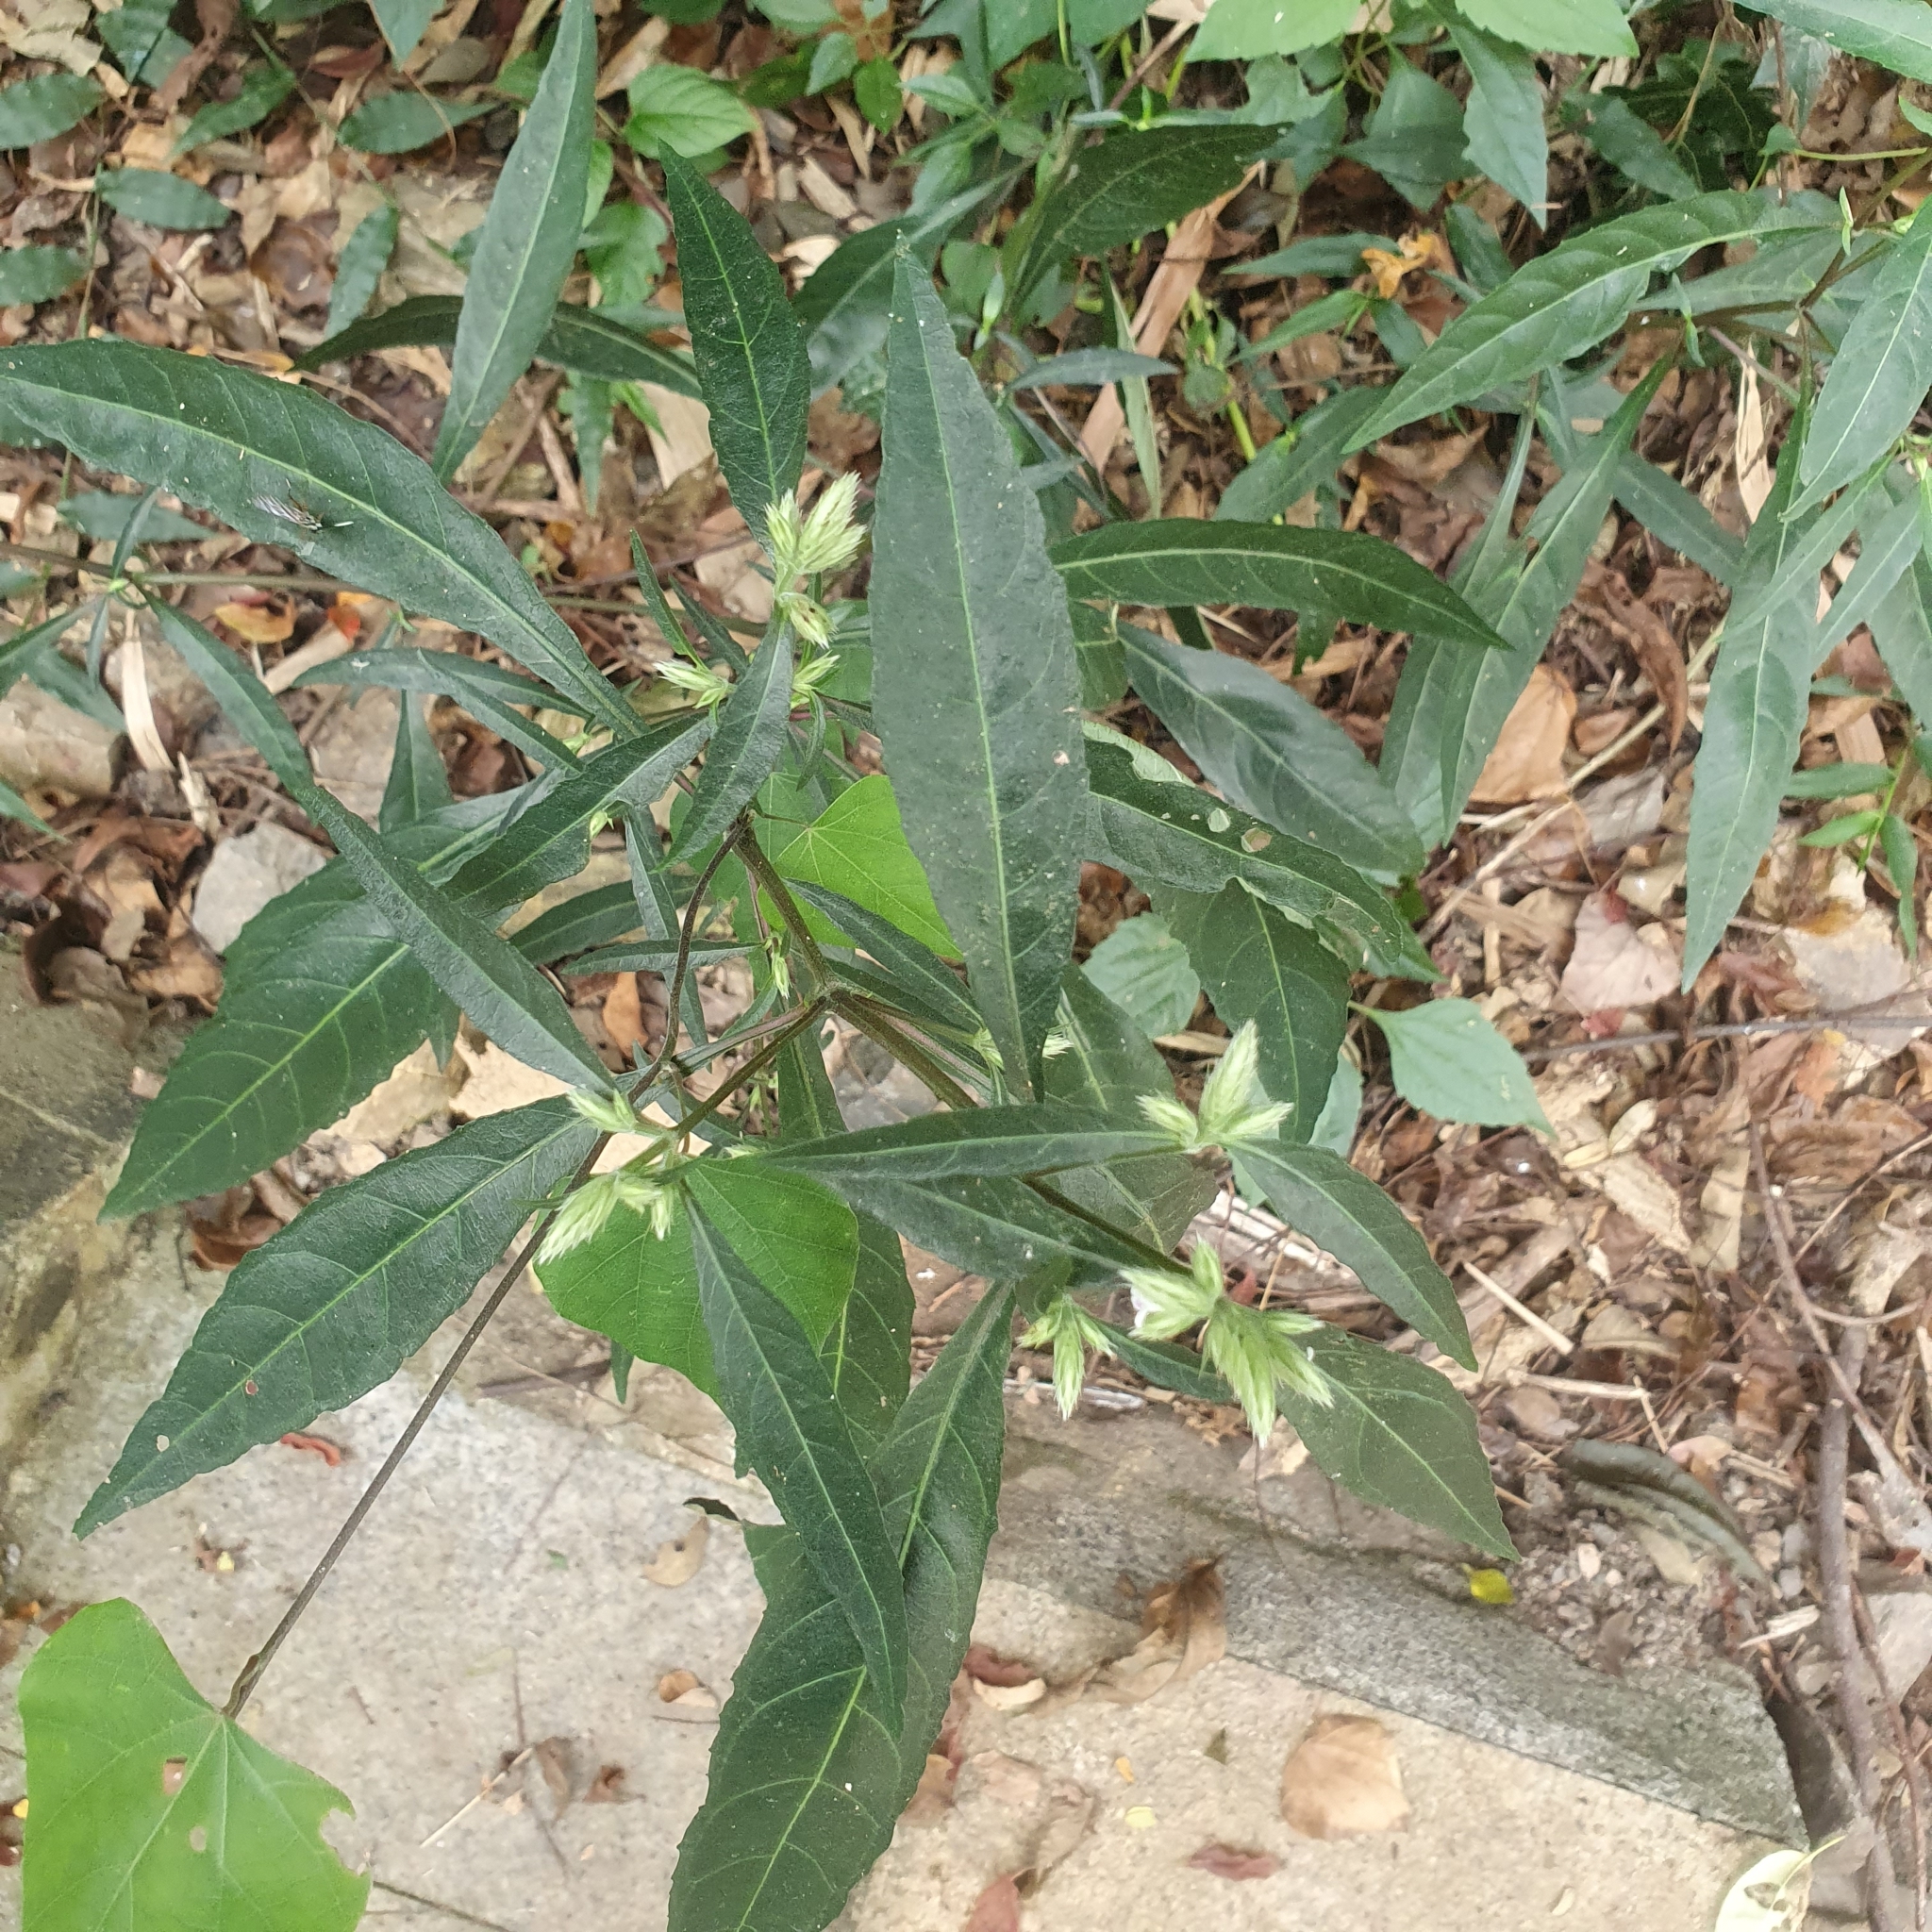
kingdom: Plantae
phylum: Tracheophyta
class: Magnoliopsida
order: Lamiales
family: Acanthaceae
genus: Lepidagathis
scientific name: Lepidagathis formosensis
